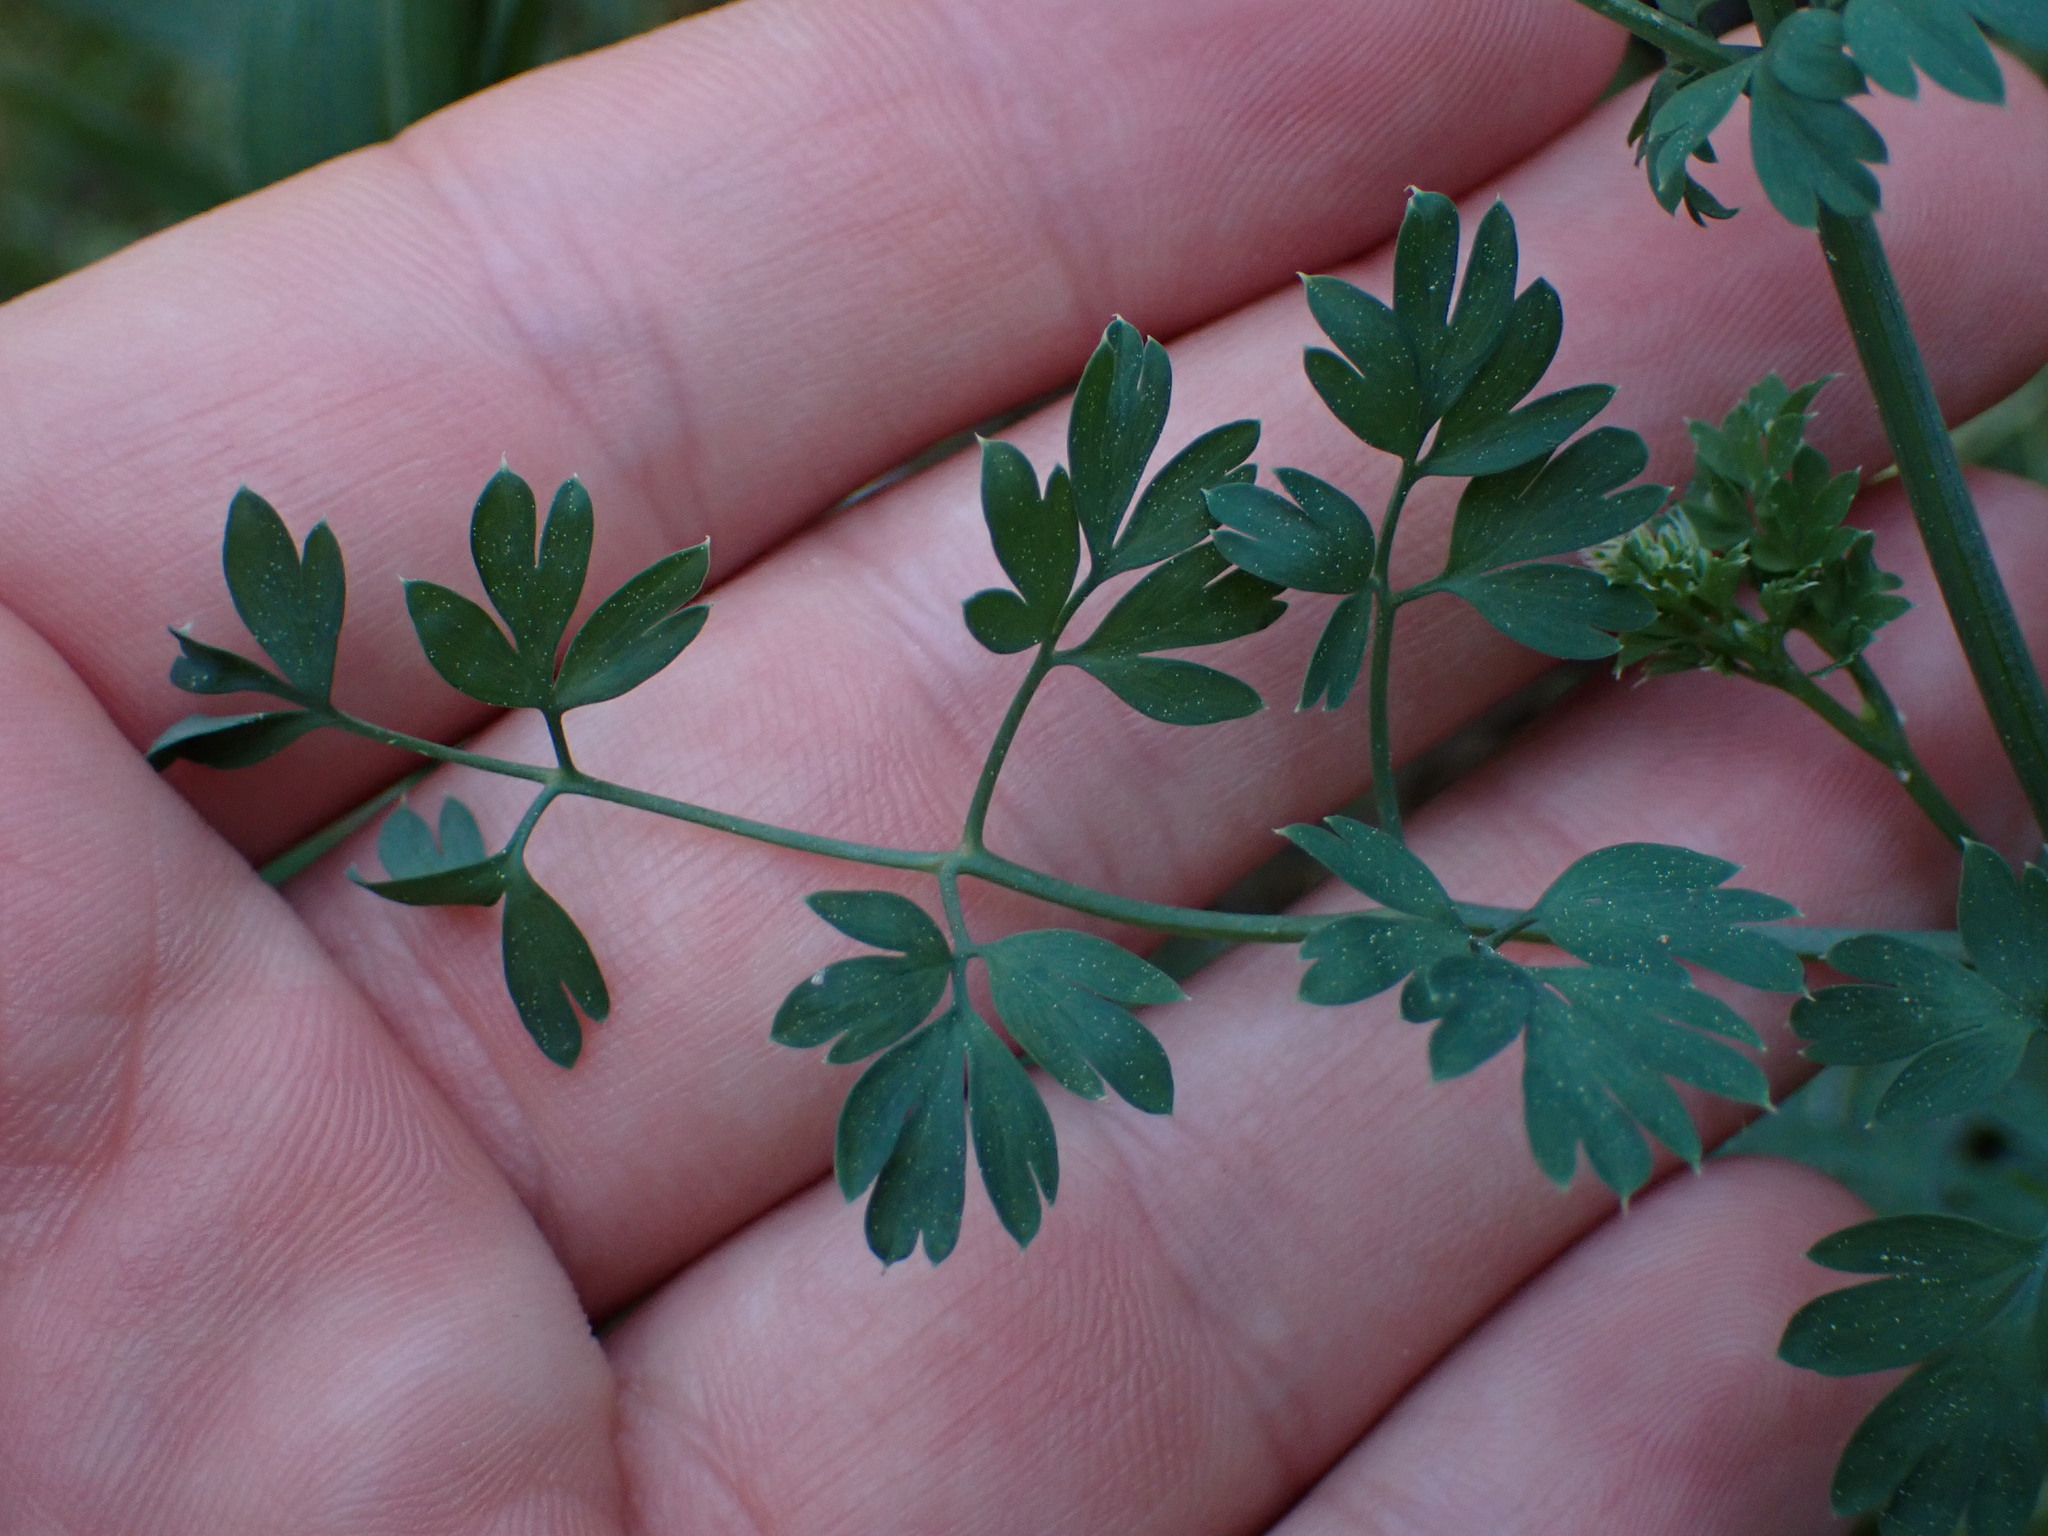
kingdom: Plantae
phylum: Tracheophyta
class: Magnoliopsida
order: Ranunculales
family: Papaveraceae
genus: Fumaria
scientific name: Fumaria capreolata
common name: White ramping-fumitory
